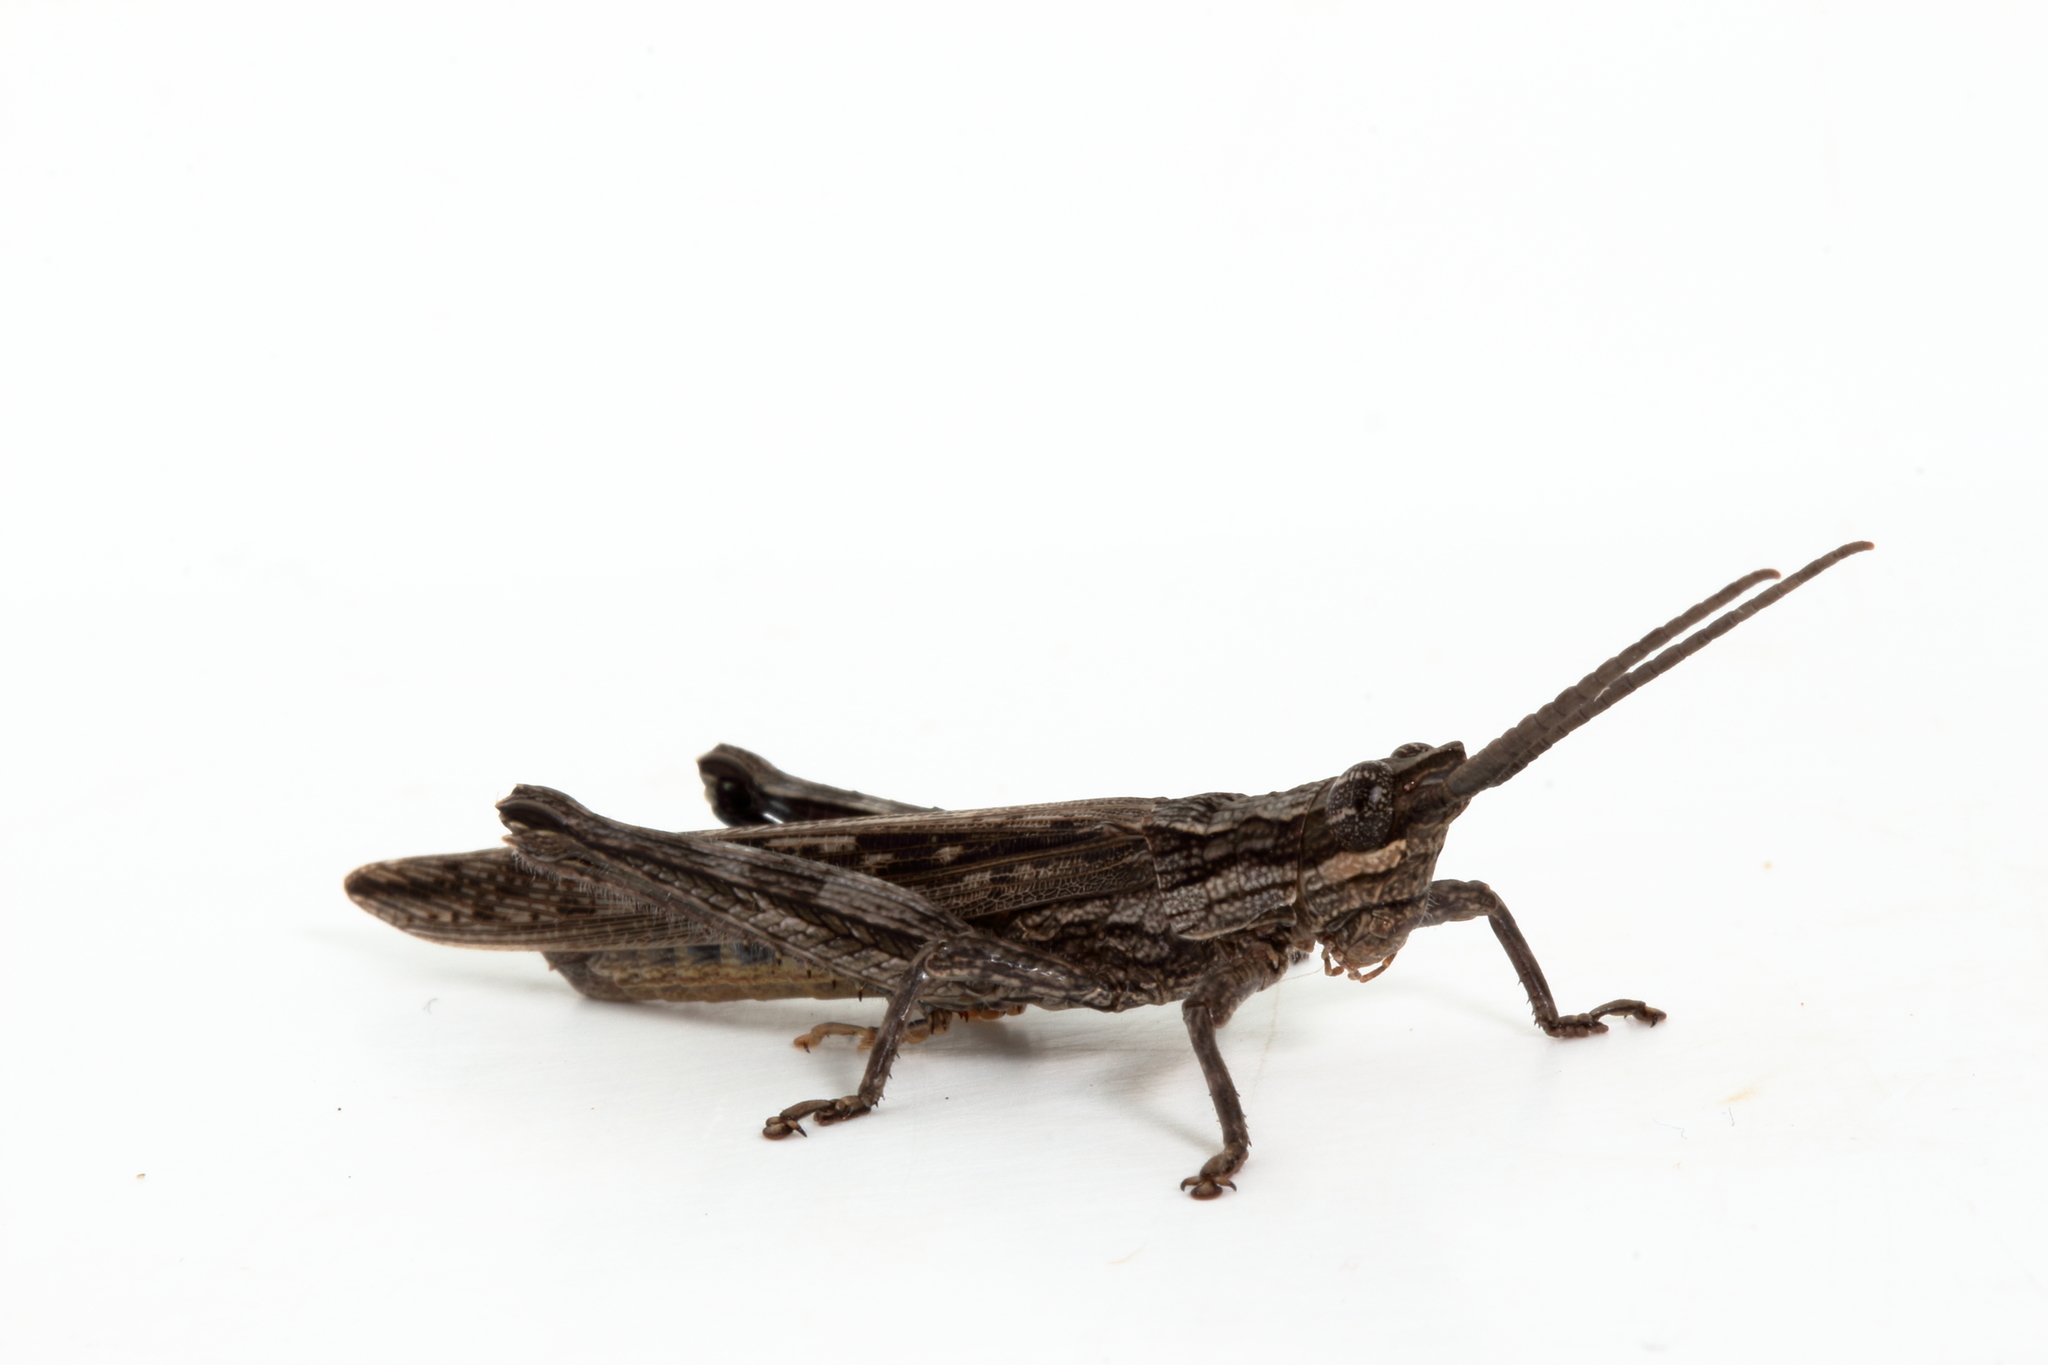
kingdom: Animalia
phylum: Arthropoda
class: Insecta
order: Orthoptera
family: Acrididae
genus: Coryphistes
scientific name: Coryphistes ruricola
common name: Bark-mimicking grasshopper
